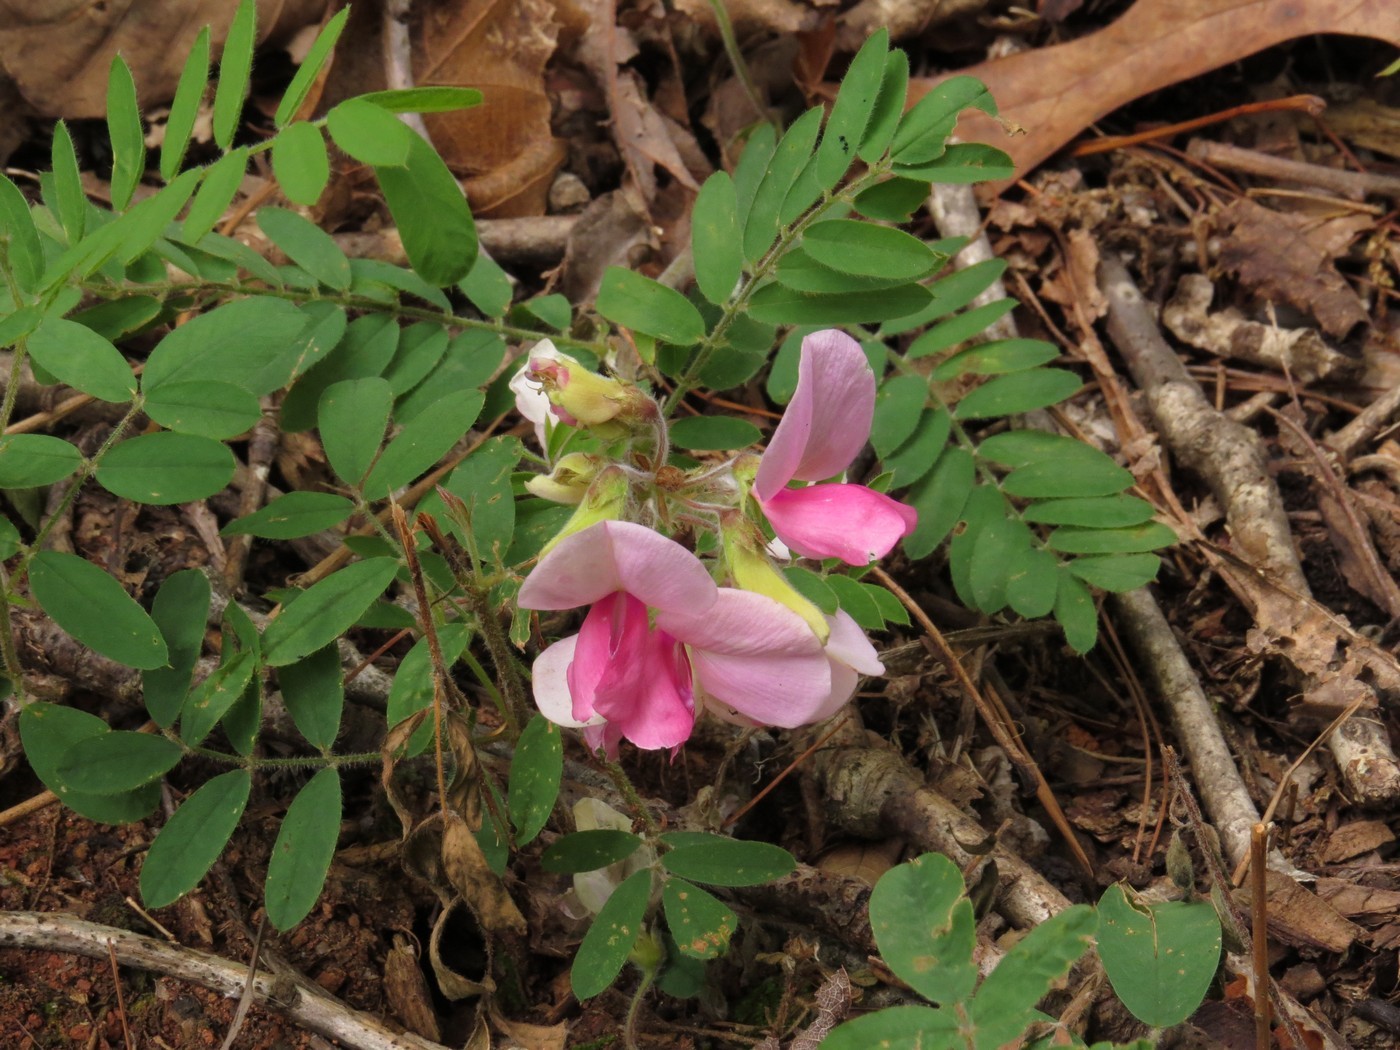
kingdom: Plantae
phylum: Tracheophyta
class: Magnoliopsida
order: Fabales
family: Fabaceae
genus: Tephrosia
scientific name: Tephrosia virginiana
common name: Rabbit-pea
